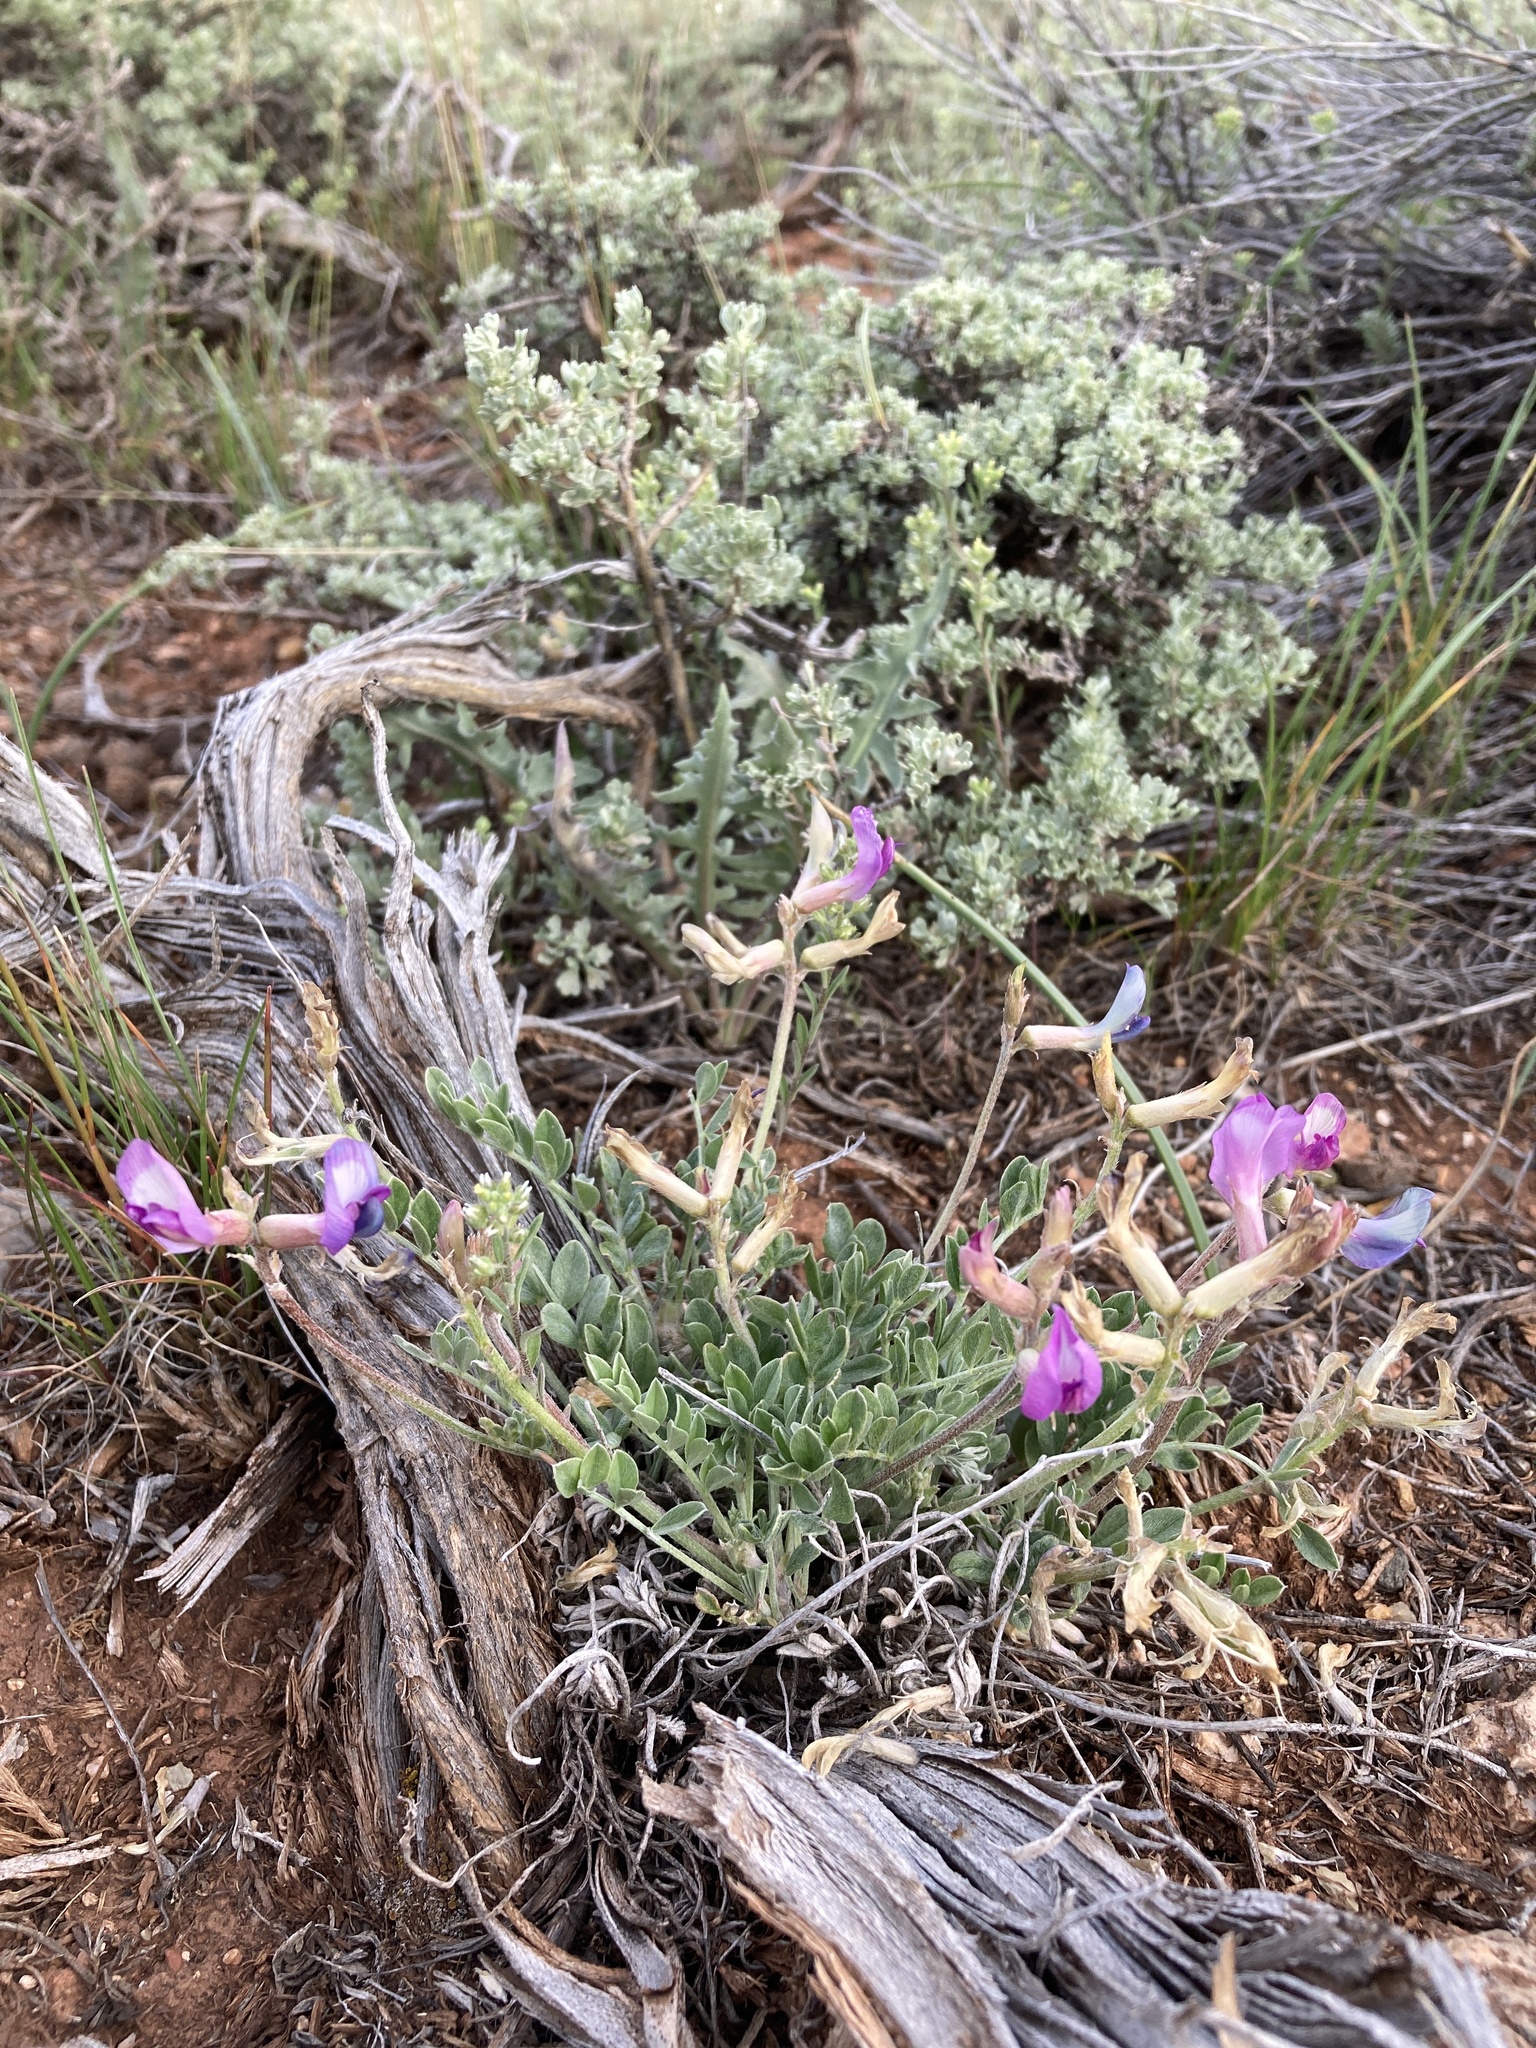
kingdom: Plantae
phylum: Tracheophyta
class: Magnoliopsida
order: Fabales
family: Fabaceae
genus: Astragalus
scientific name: Astragalus missouriensis
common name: Missouri milk-vetch
